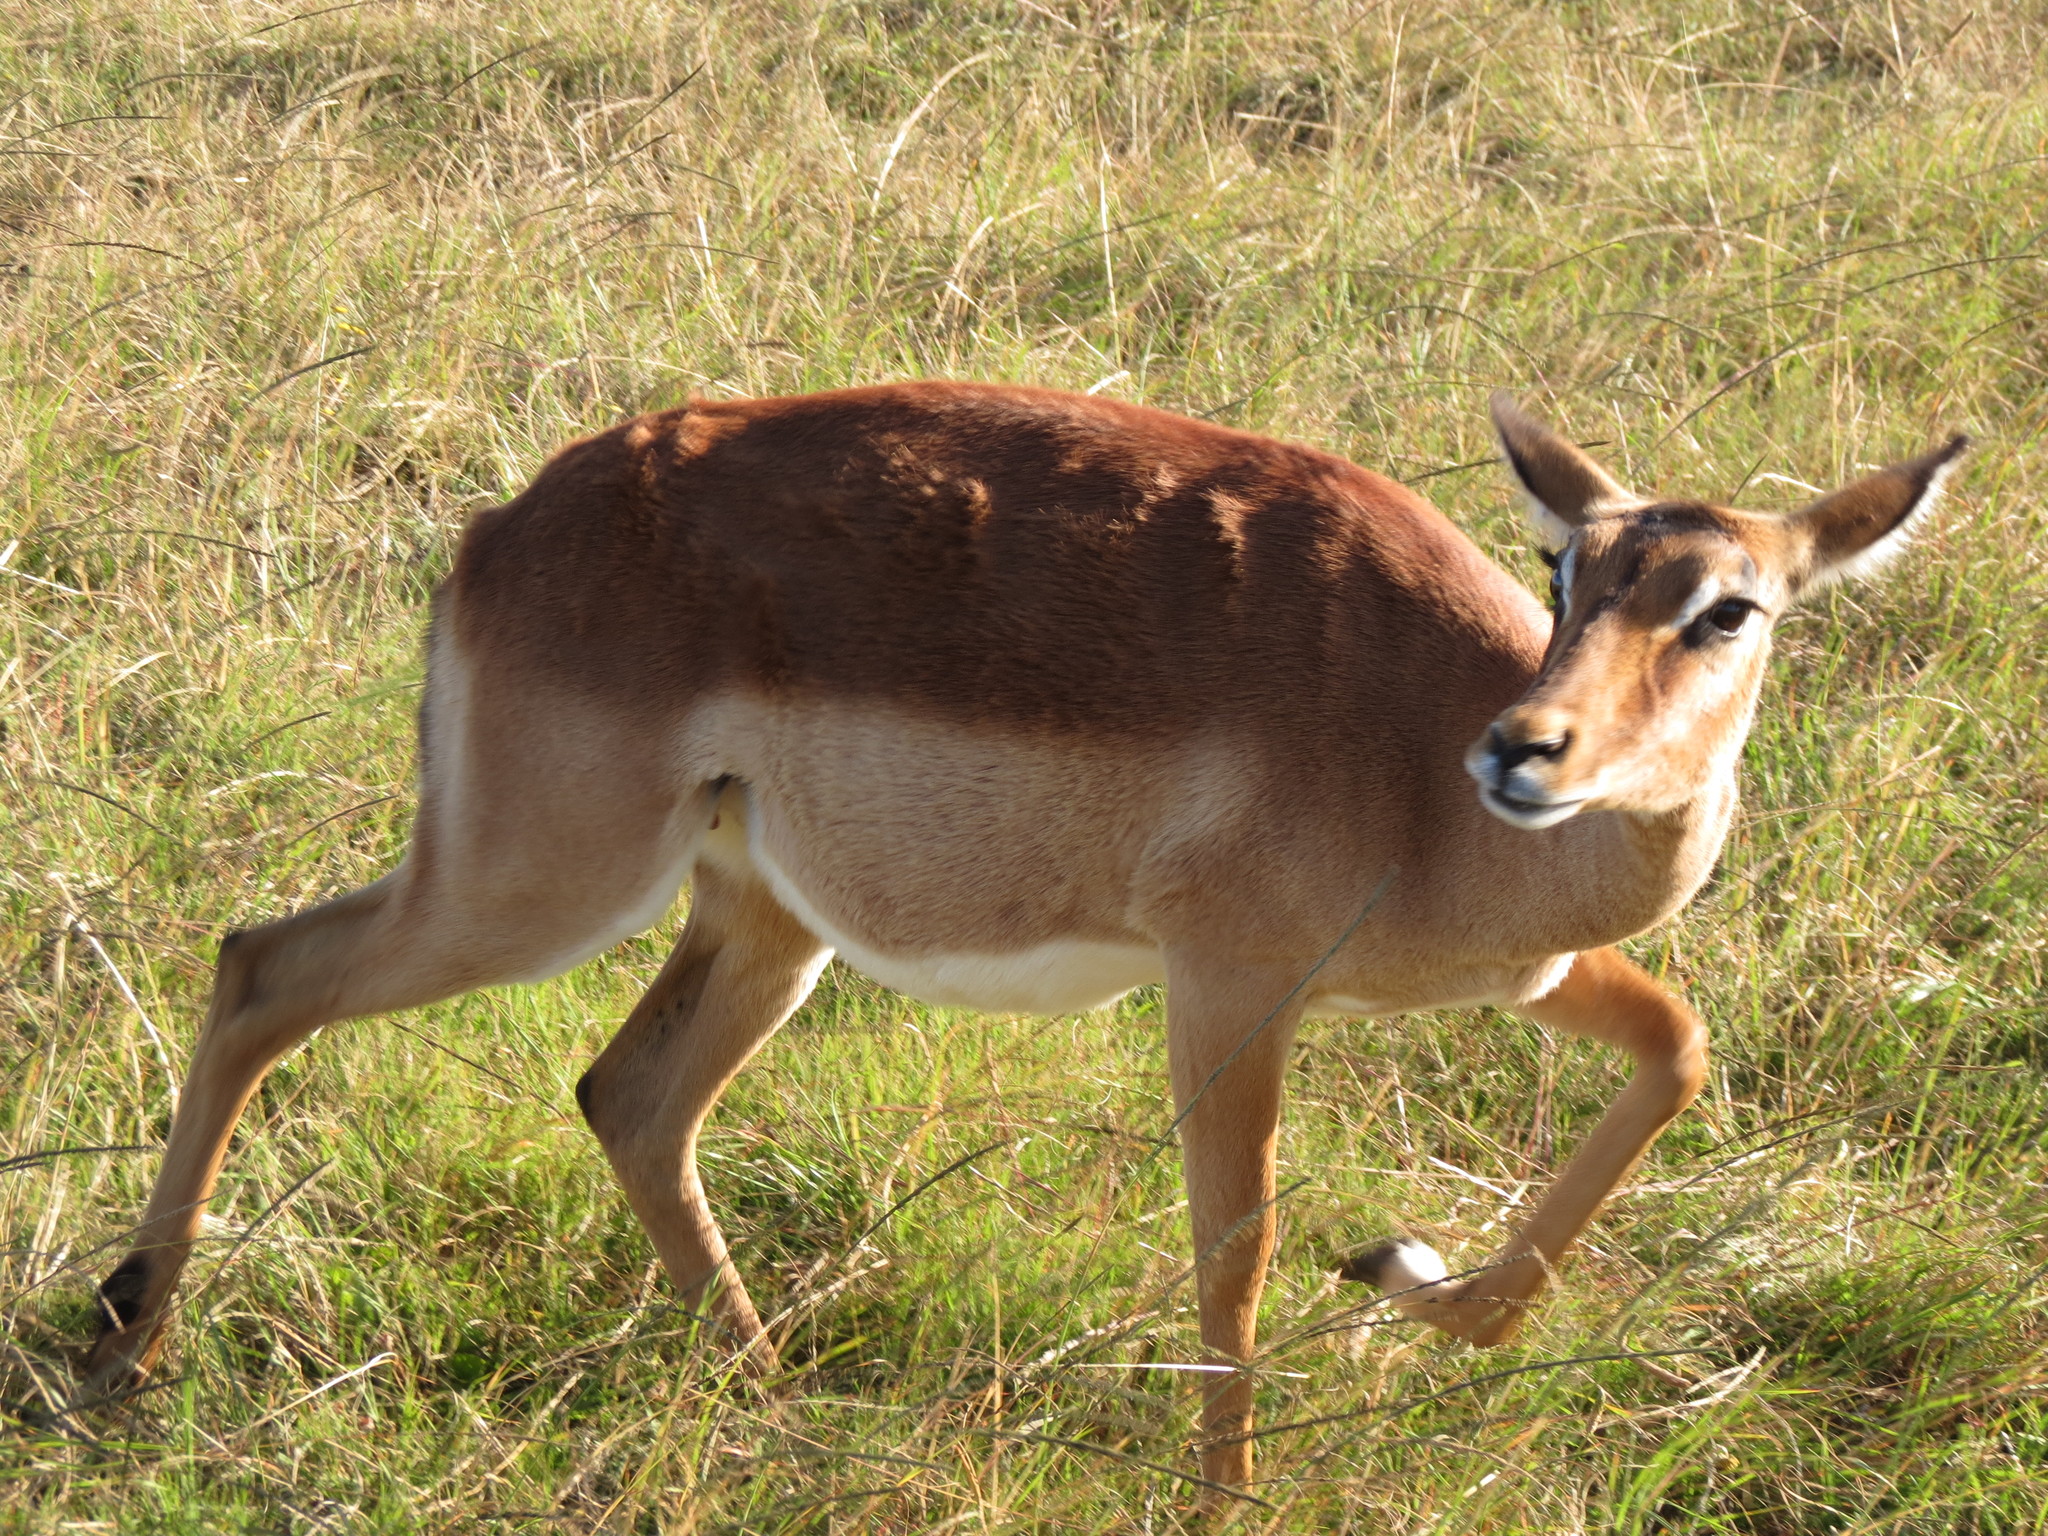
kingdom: Animalia
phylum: Chordata
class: Mammalia
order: Artiodactyla
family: Bovidae
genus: Aepyceros
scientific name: Aepyceros melampus
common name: Impala
